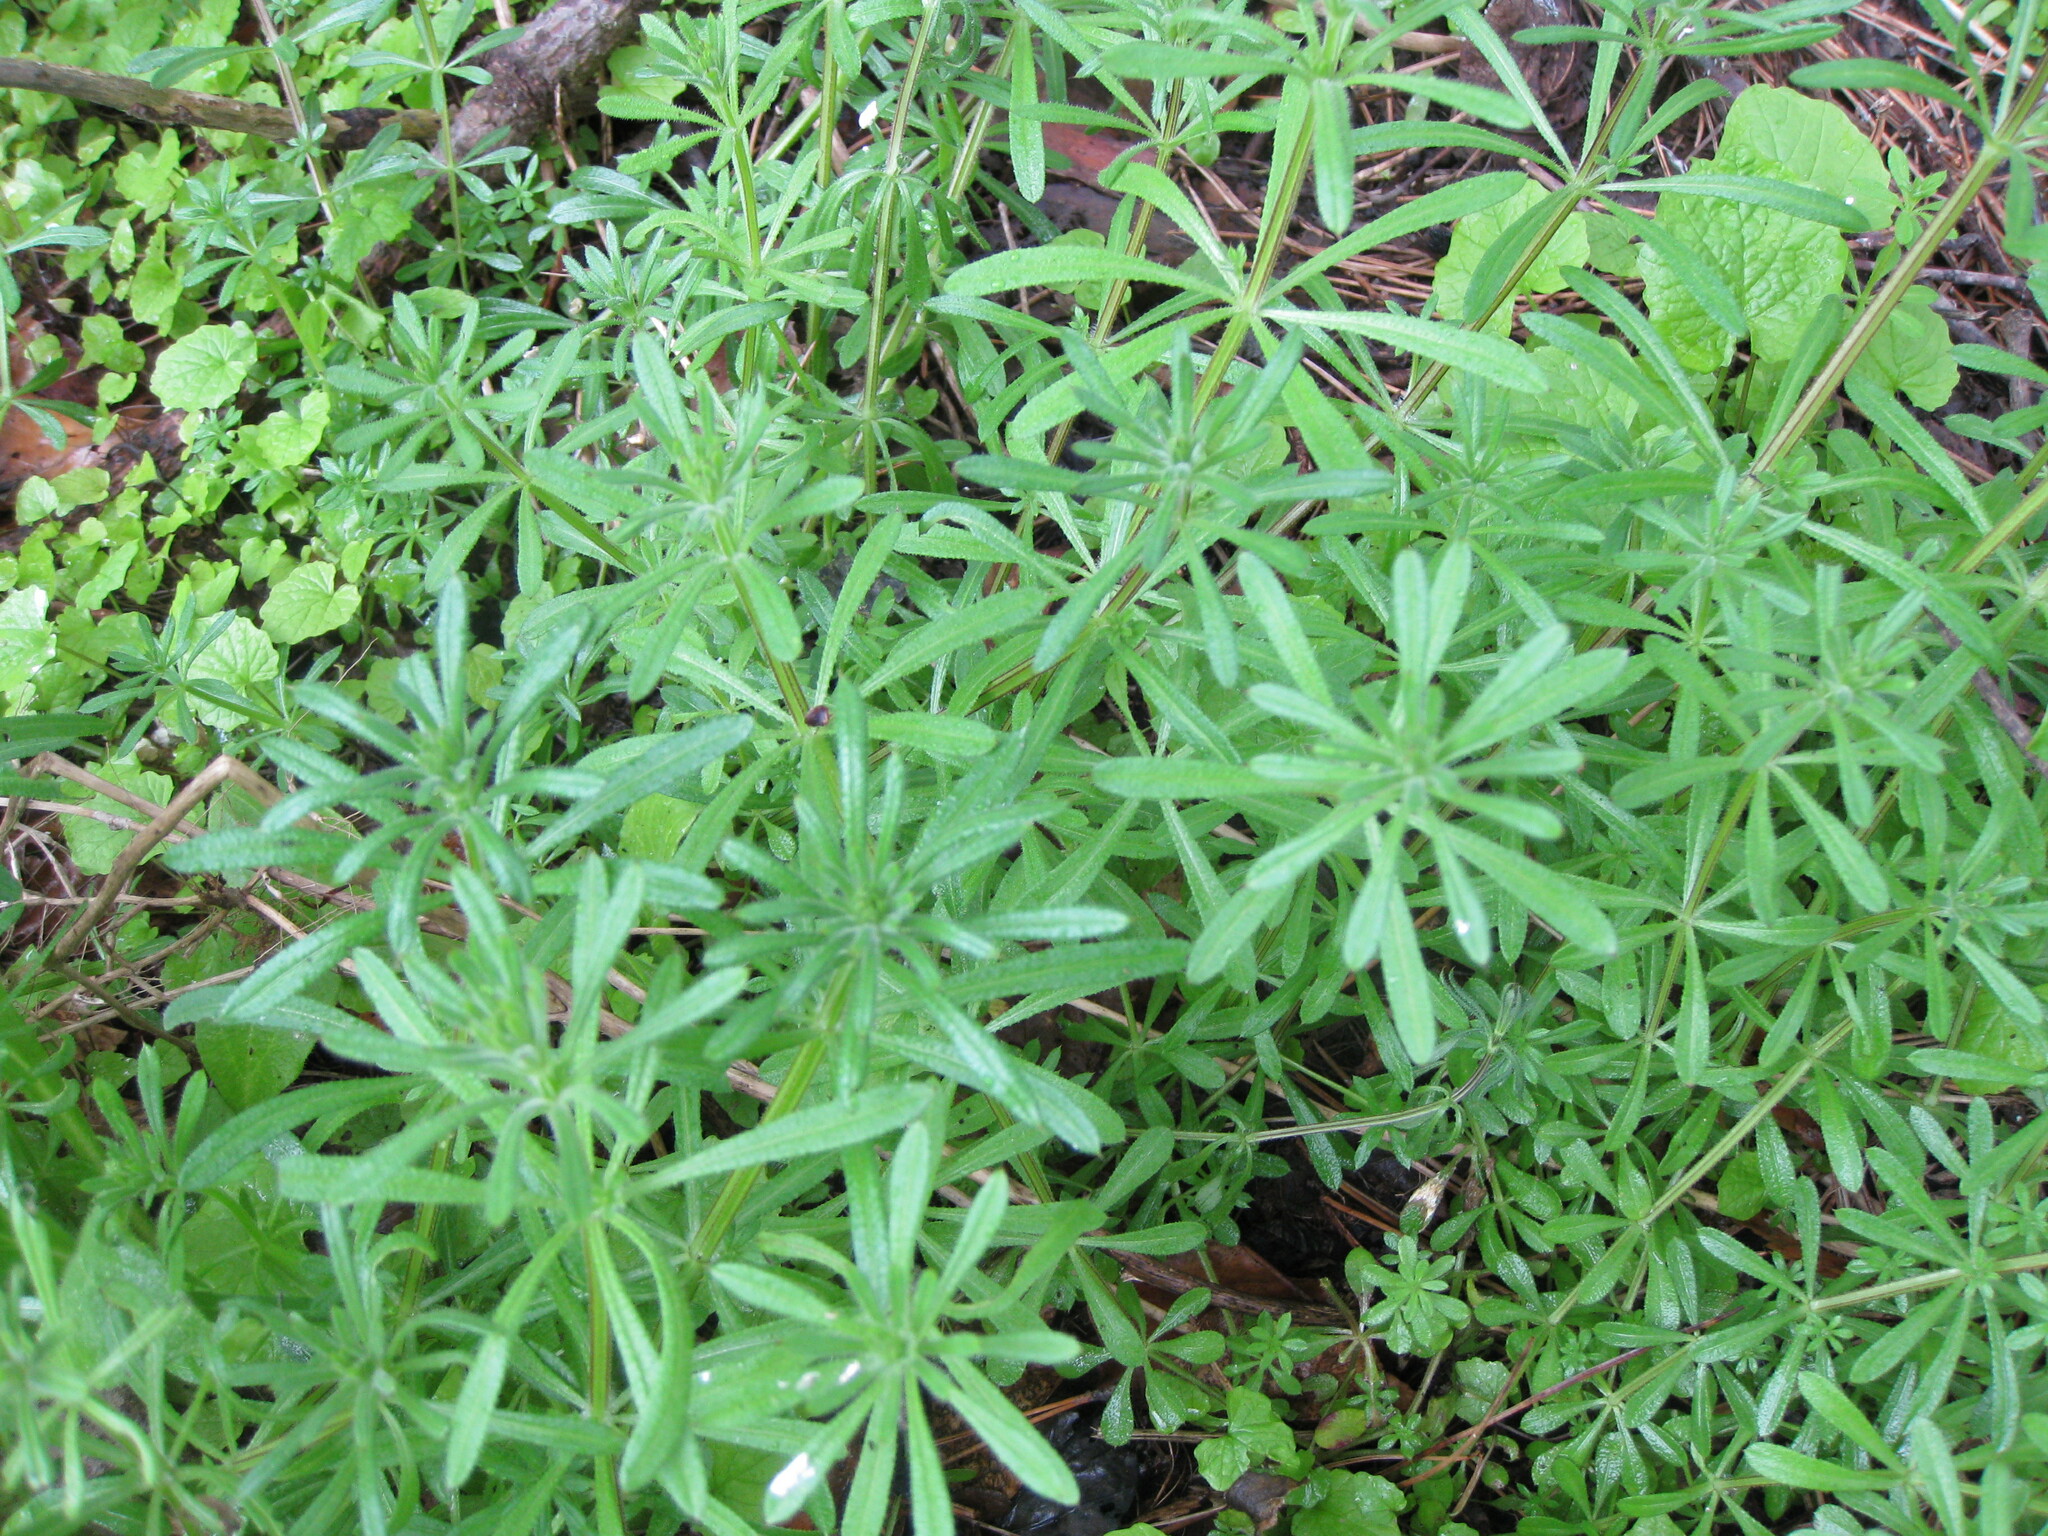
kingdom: Plantae
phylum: Tracheophyta
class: Magnoliopsida
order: Gentianales
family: Rubiaceae
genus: Galium
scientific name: Galium aparine
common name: Cleavers
